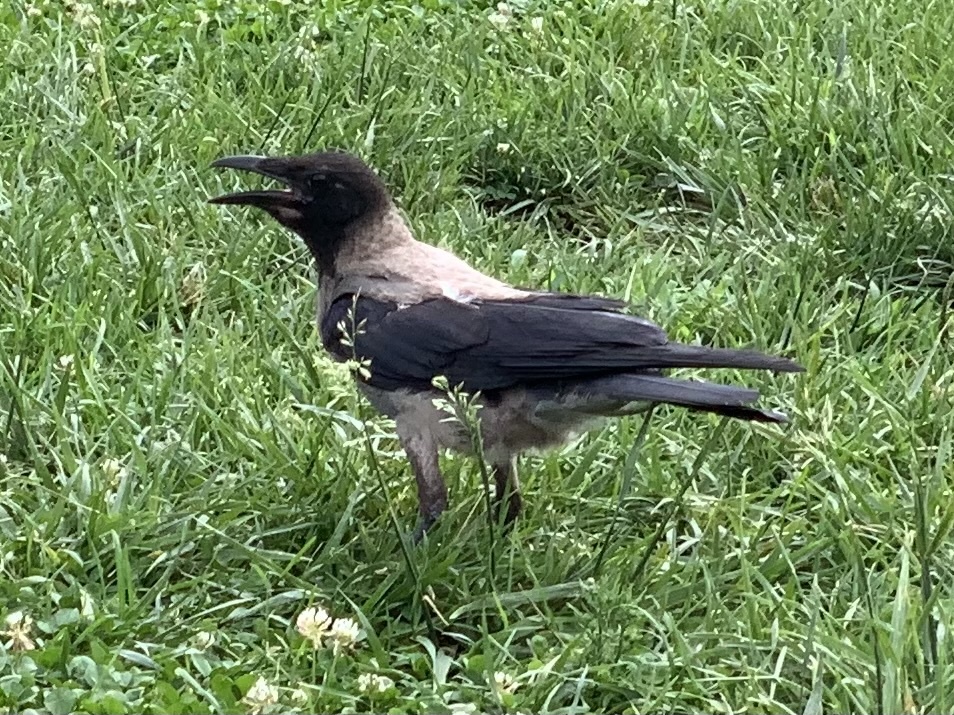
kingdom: Animalia
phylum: Chordata
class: Aves
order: Passeriformes
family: Corvidae
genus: Corvus
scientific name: Corvus cornix
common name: Hooded crow
